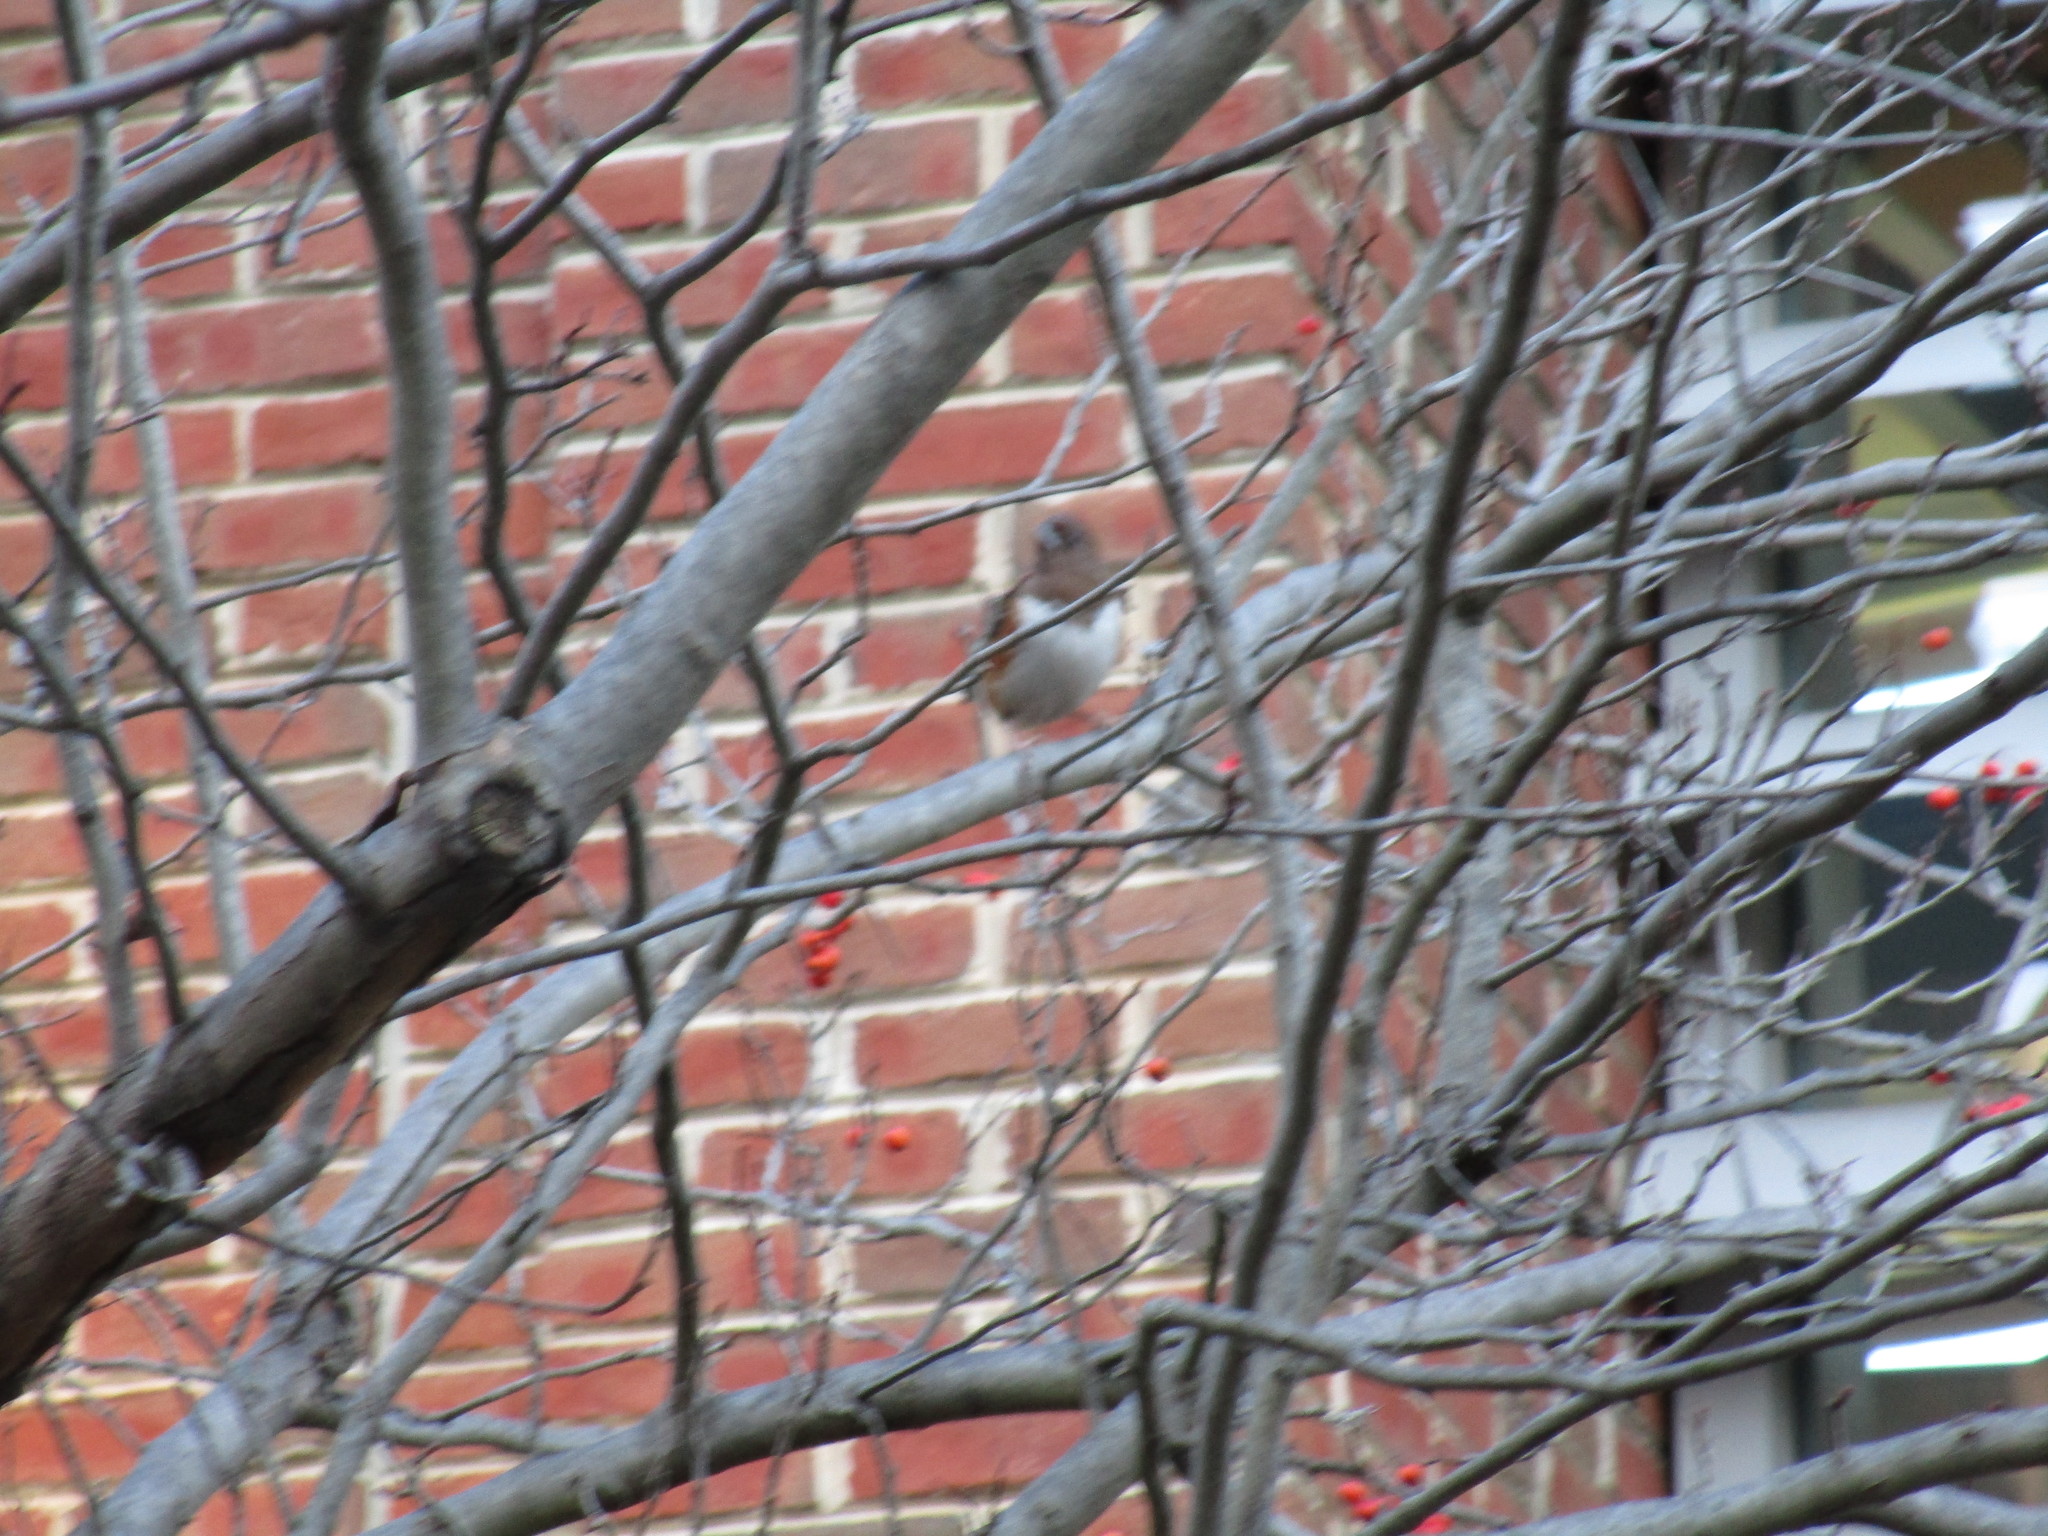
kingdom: Animalia
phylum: Chordata
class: Aves
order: Passeriformes
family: Passerellidae
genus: Pipilo
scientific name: Pipilo erythrophthalmus
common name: Eastern towhee
